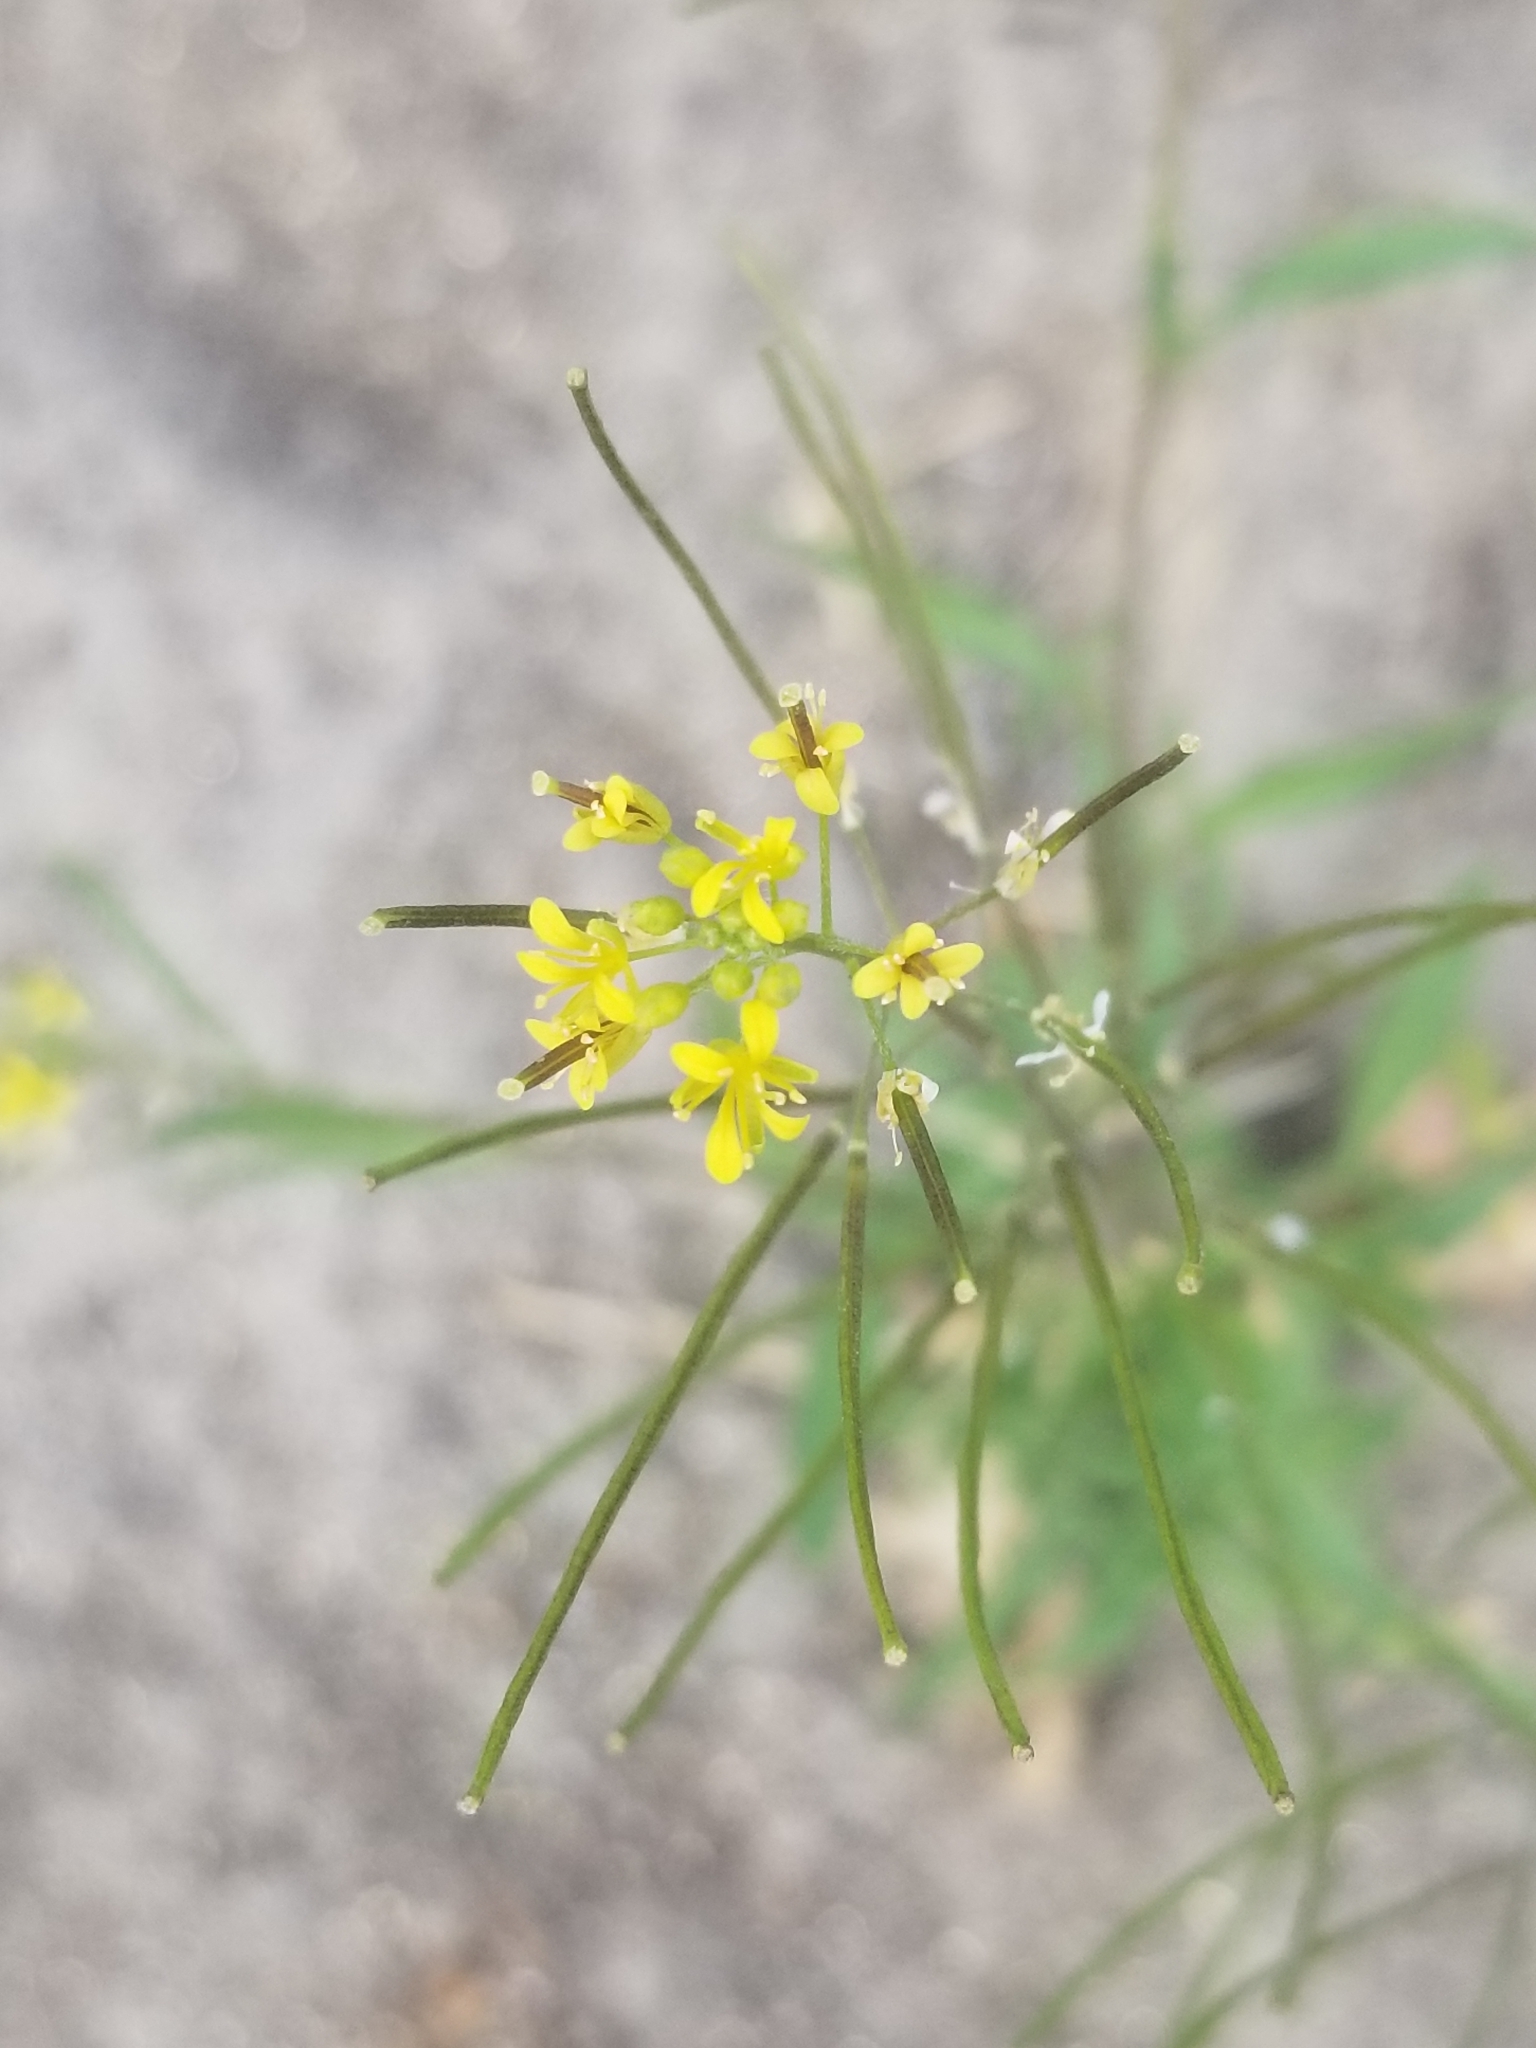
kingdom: Plantae
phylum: Tracheophyta
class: Magnoliopsida
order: Brassicales
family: Brassicaceae
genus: Sisymbrium
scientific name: Sisymbrium irio
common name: London rocket
